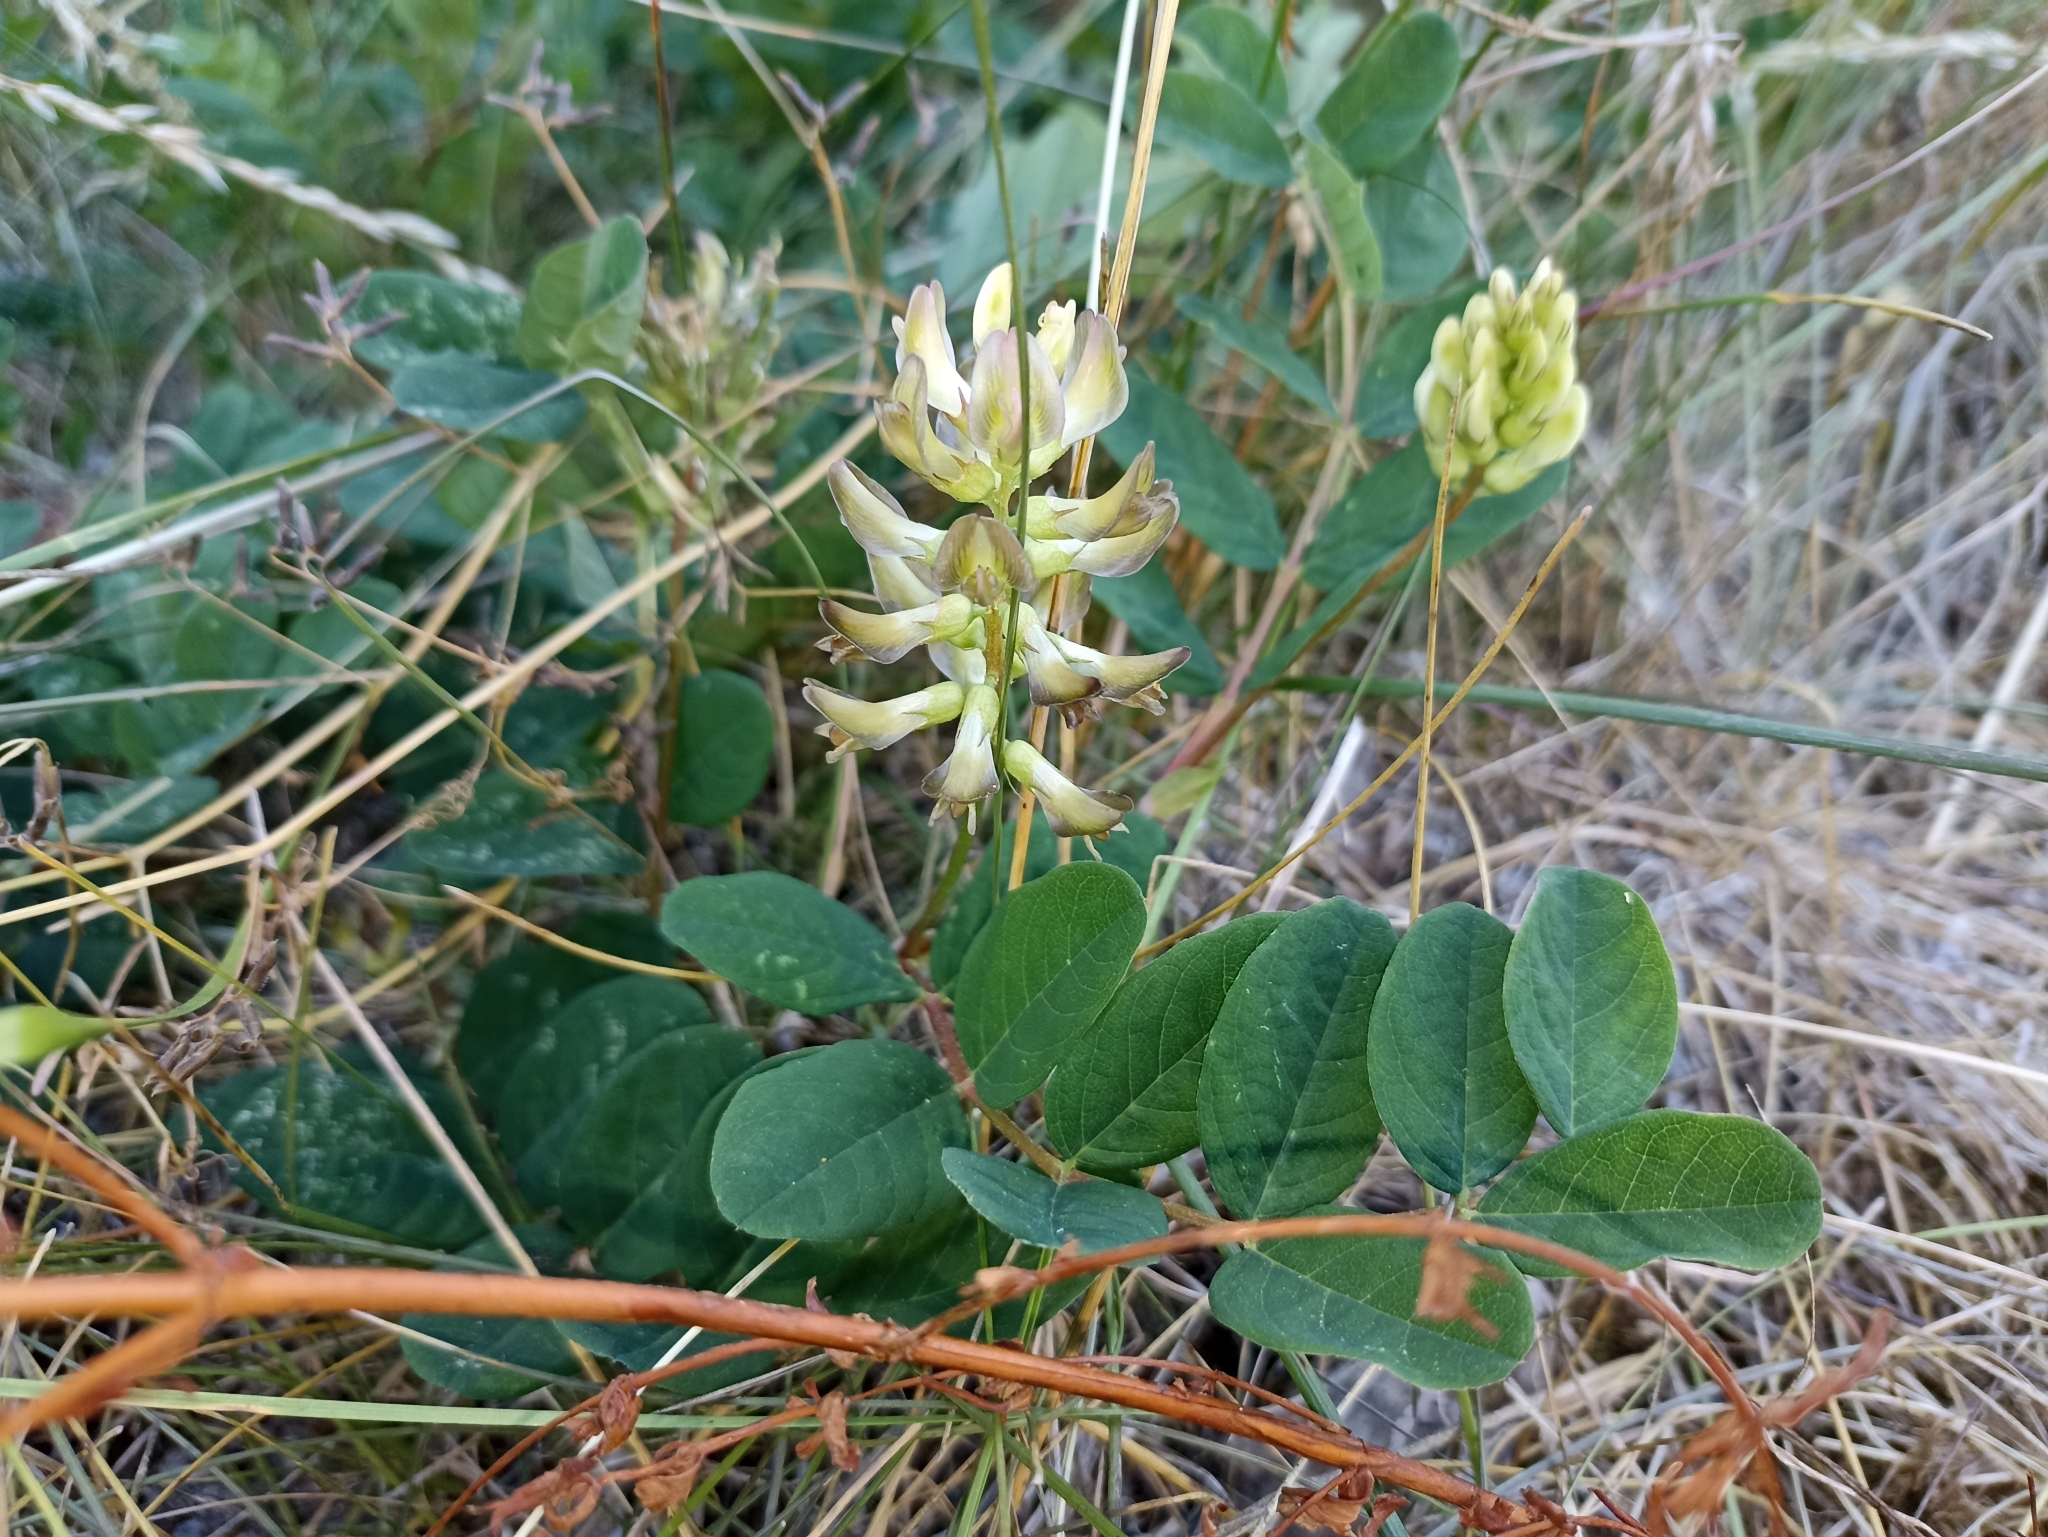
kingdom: Plantae
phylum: Tracheophyta
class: Magnoliopsida
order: Fabales
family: Fabaceae
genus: Astragalus
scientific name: Astragalus glycyphyllos
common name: Wild liquorice
